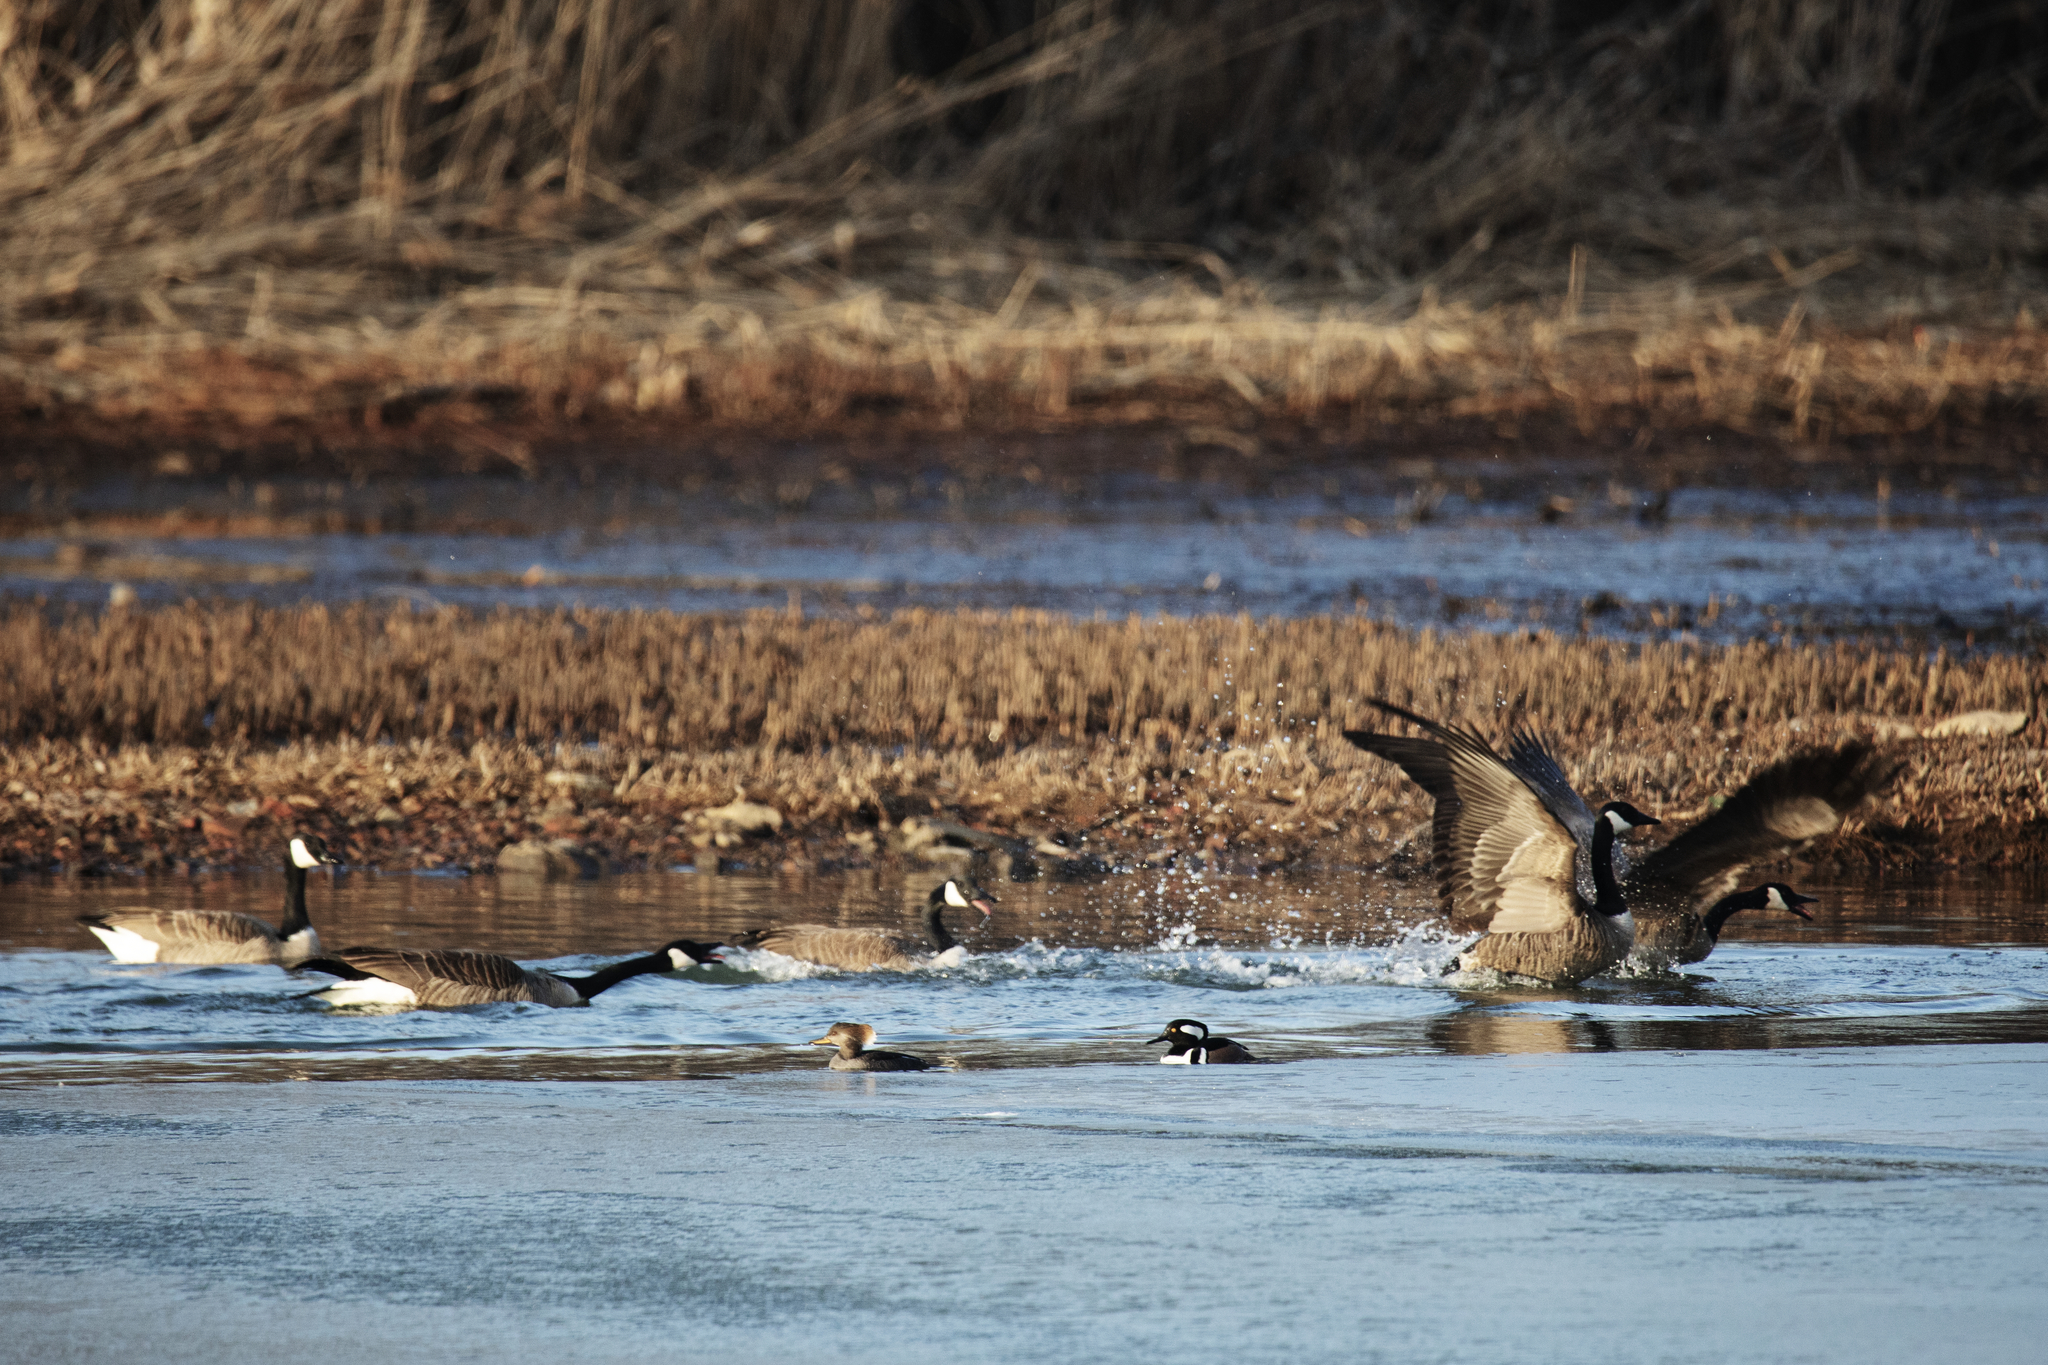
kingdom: Animalia
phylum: Chordata
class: Aves
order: Anseriformes
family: Anatidae
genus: Lophodytes
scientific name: Lophodytes cucullatus
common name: Hooded merganser
